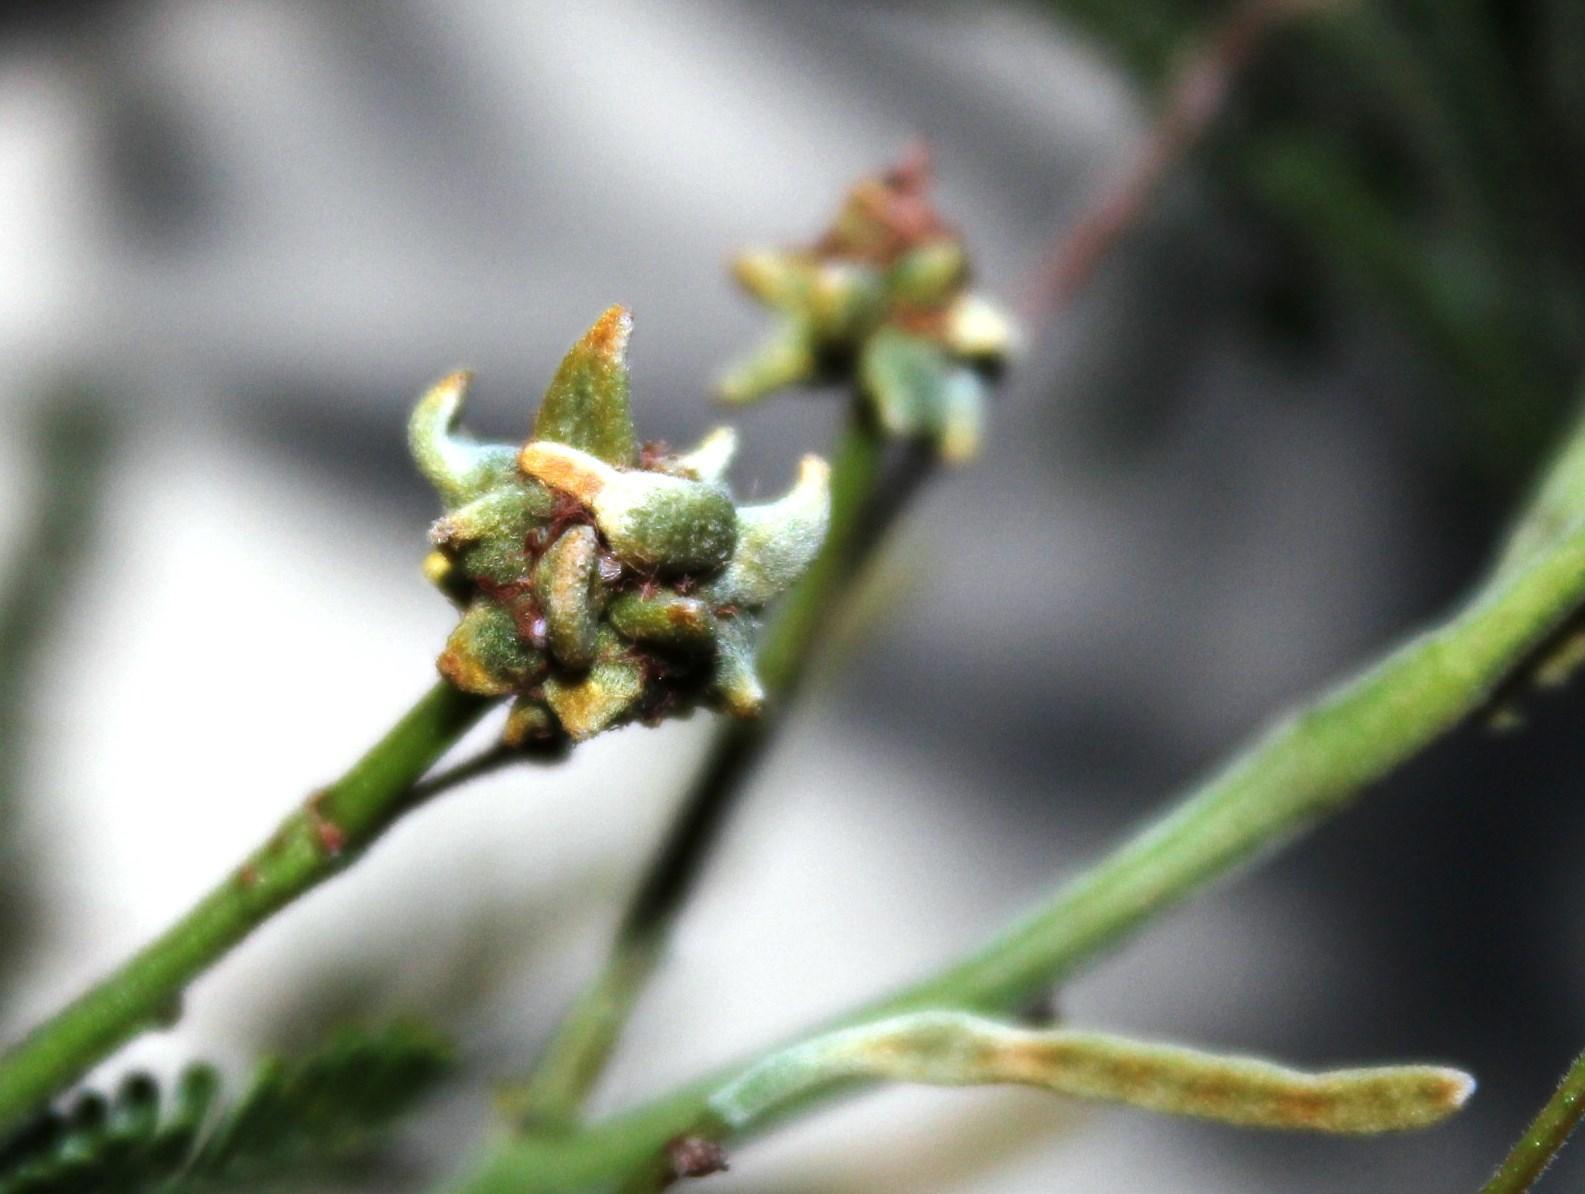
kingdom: Animalia
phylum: Arthropoda
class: Insecta
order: Diptera
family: Cecidomyiidae
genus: Dasineura
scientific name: Dasineura rubiformis
